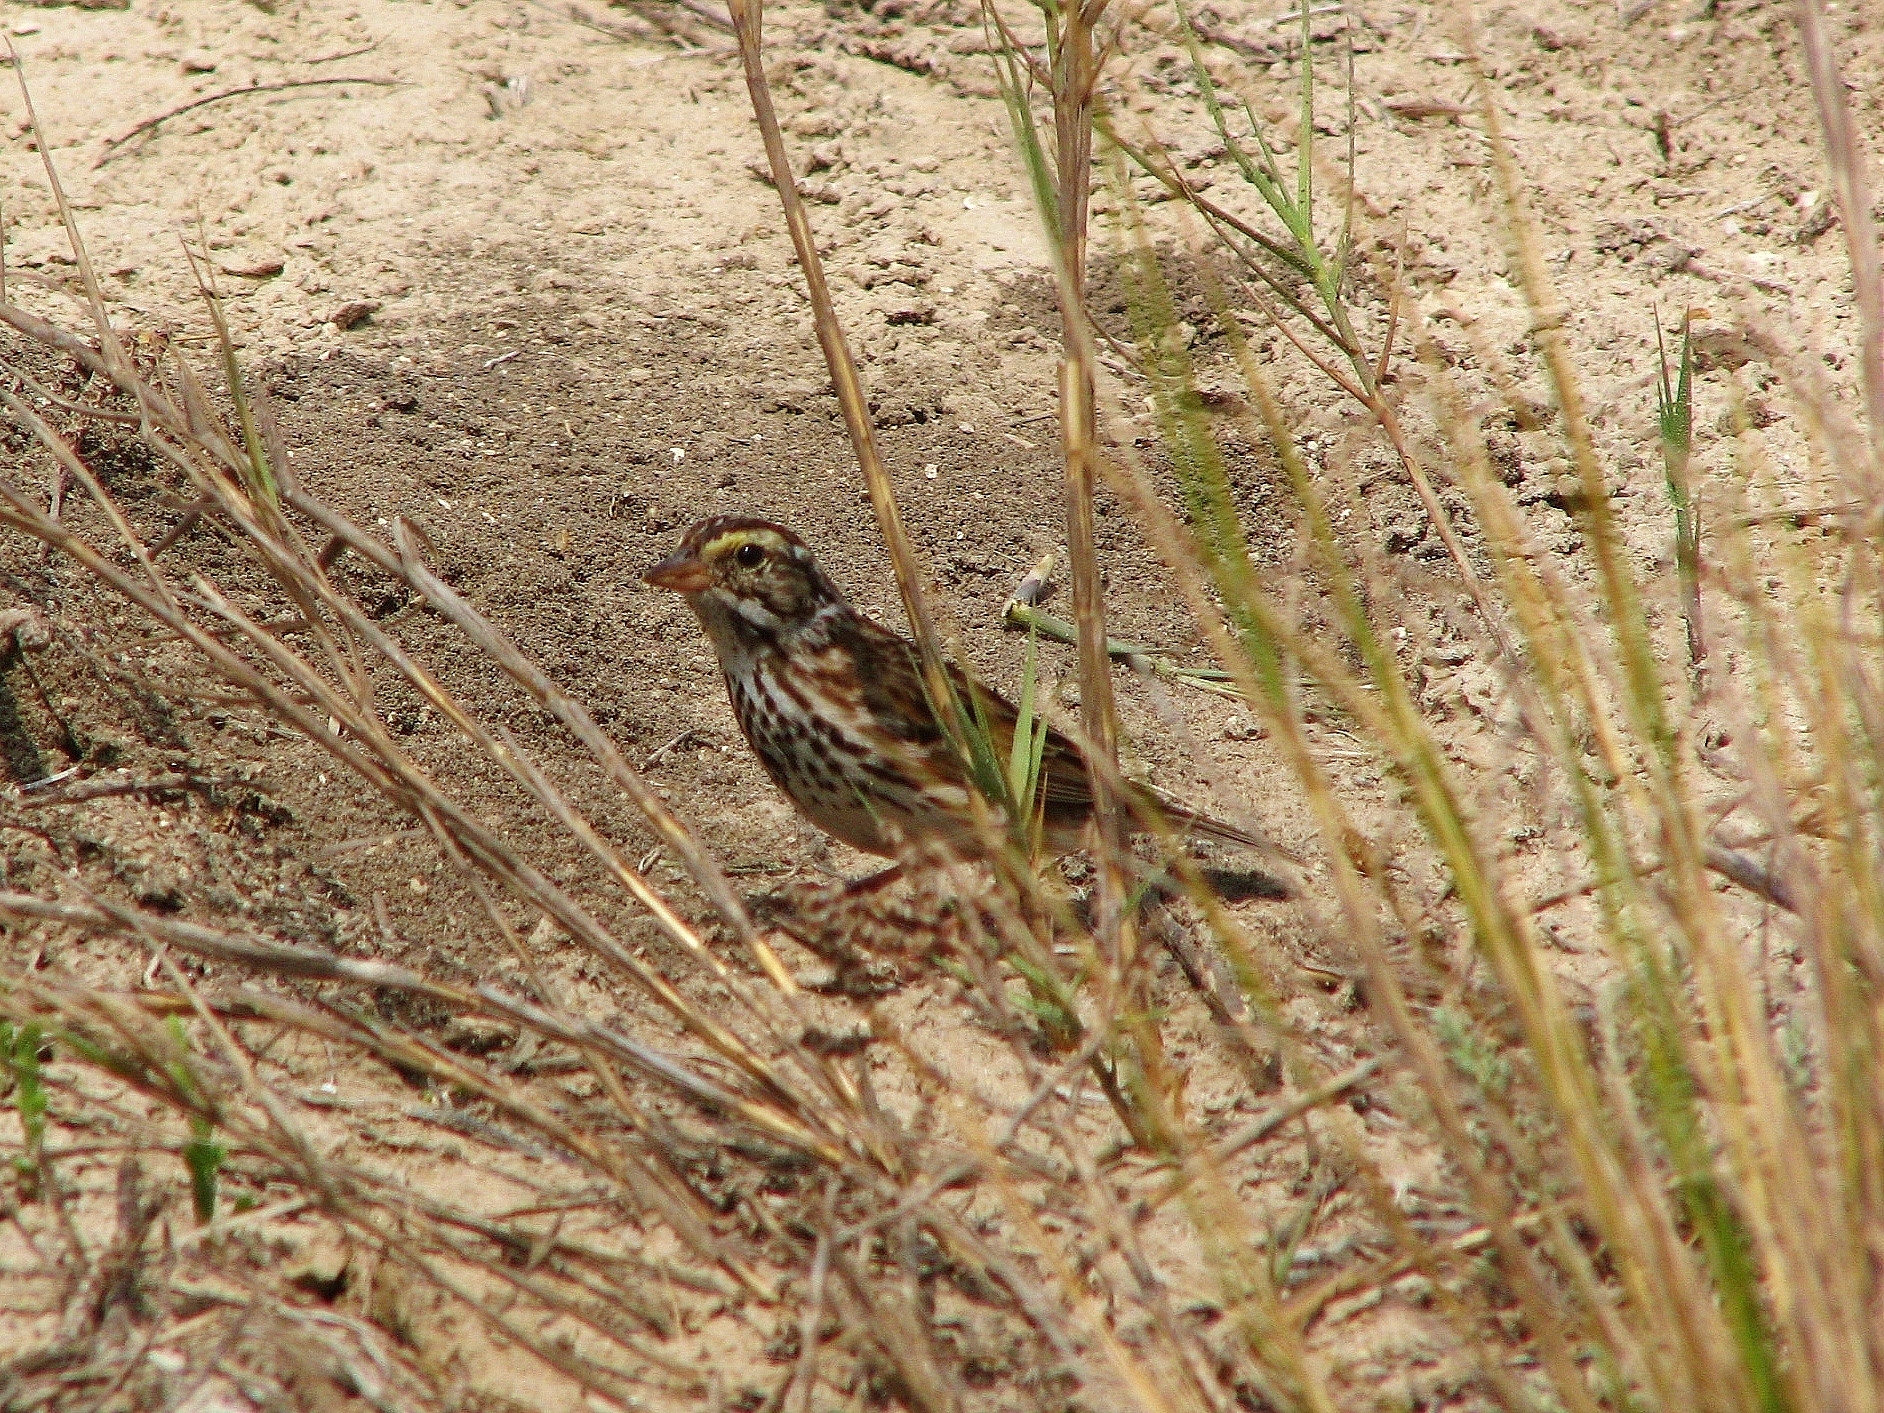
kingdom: Animalia
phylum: Chordata
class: Aves
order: Passeriformes
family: Passerellidae
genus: Passerculus
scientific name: Passerculus sandwichensis
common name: Savannah sparrow
